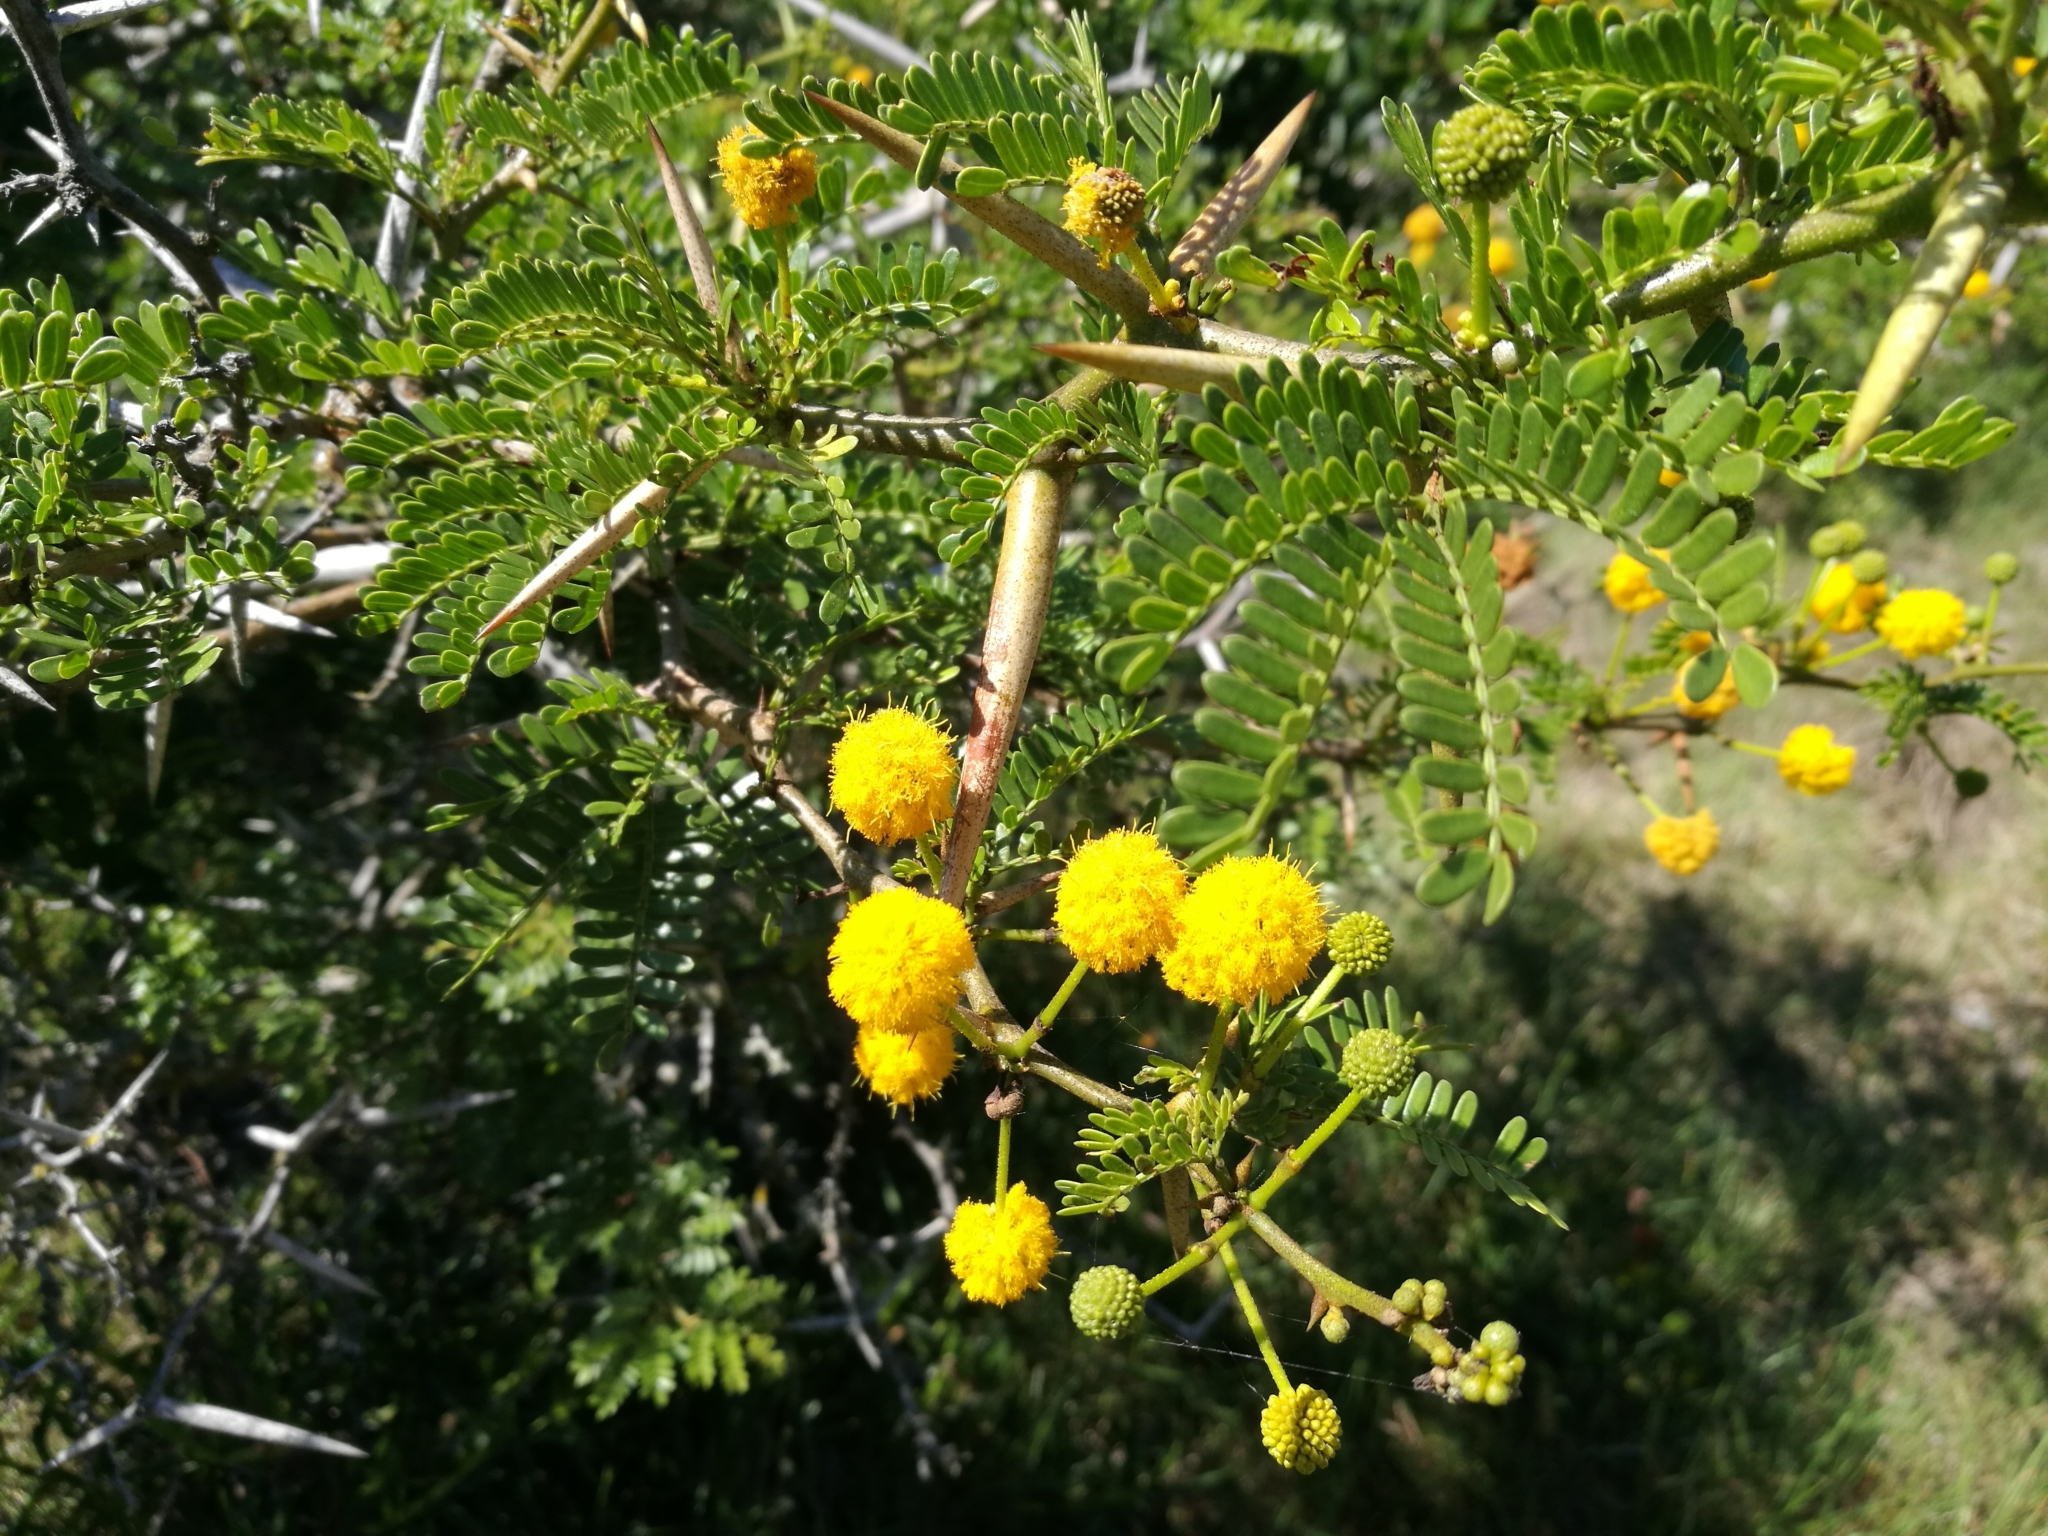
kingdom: Plantae
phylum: Tracheophyta
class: Magnoliopsida
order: Fabales
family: Fabaceae
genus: Vachellia
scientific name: Vachellia karroo
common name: Sweet thorn
